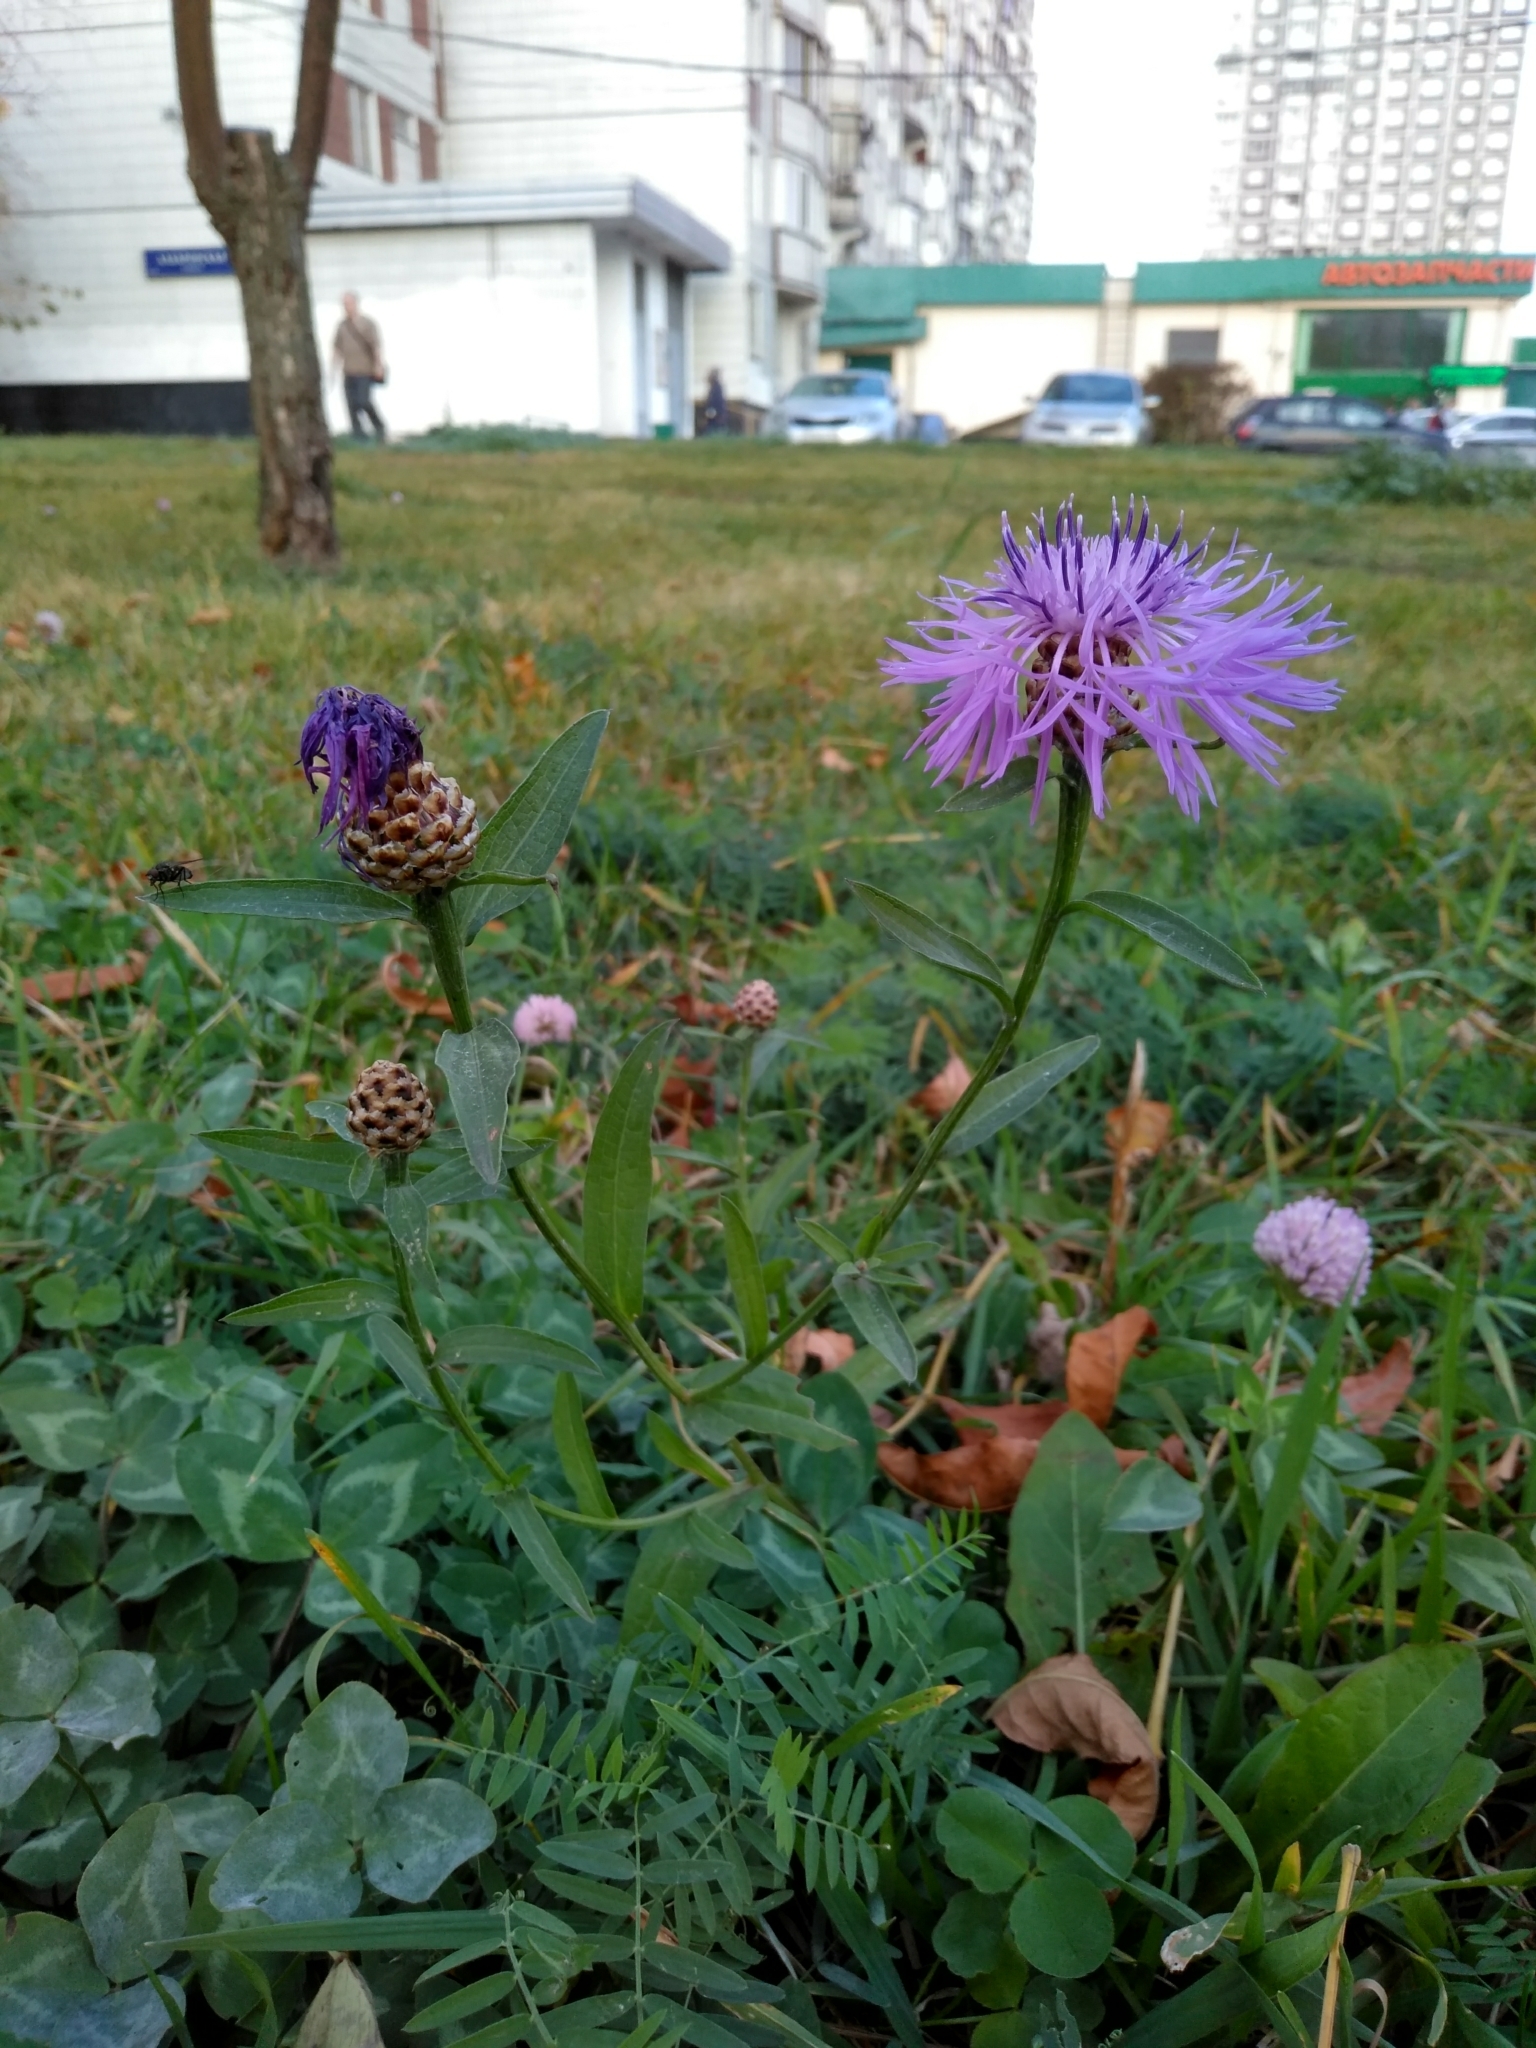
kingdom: Plantae
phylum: Tracheophyta
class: Magnoliopsida
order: Asterales
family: Asteraceae
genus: Centaurea
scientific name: Centaurea jacea
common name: Brown knapweed
